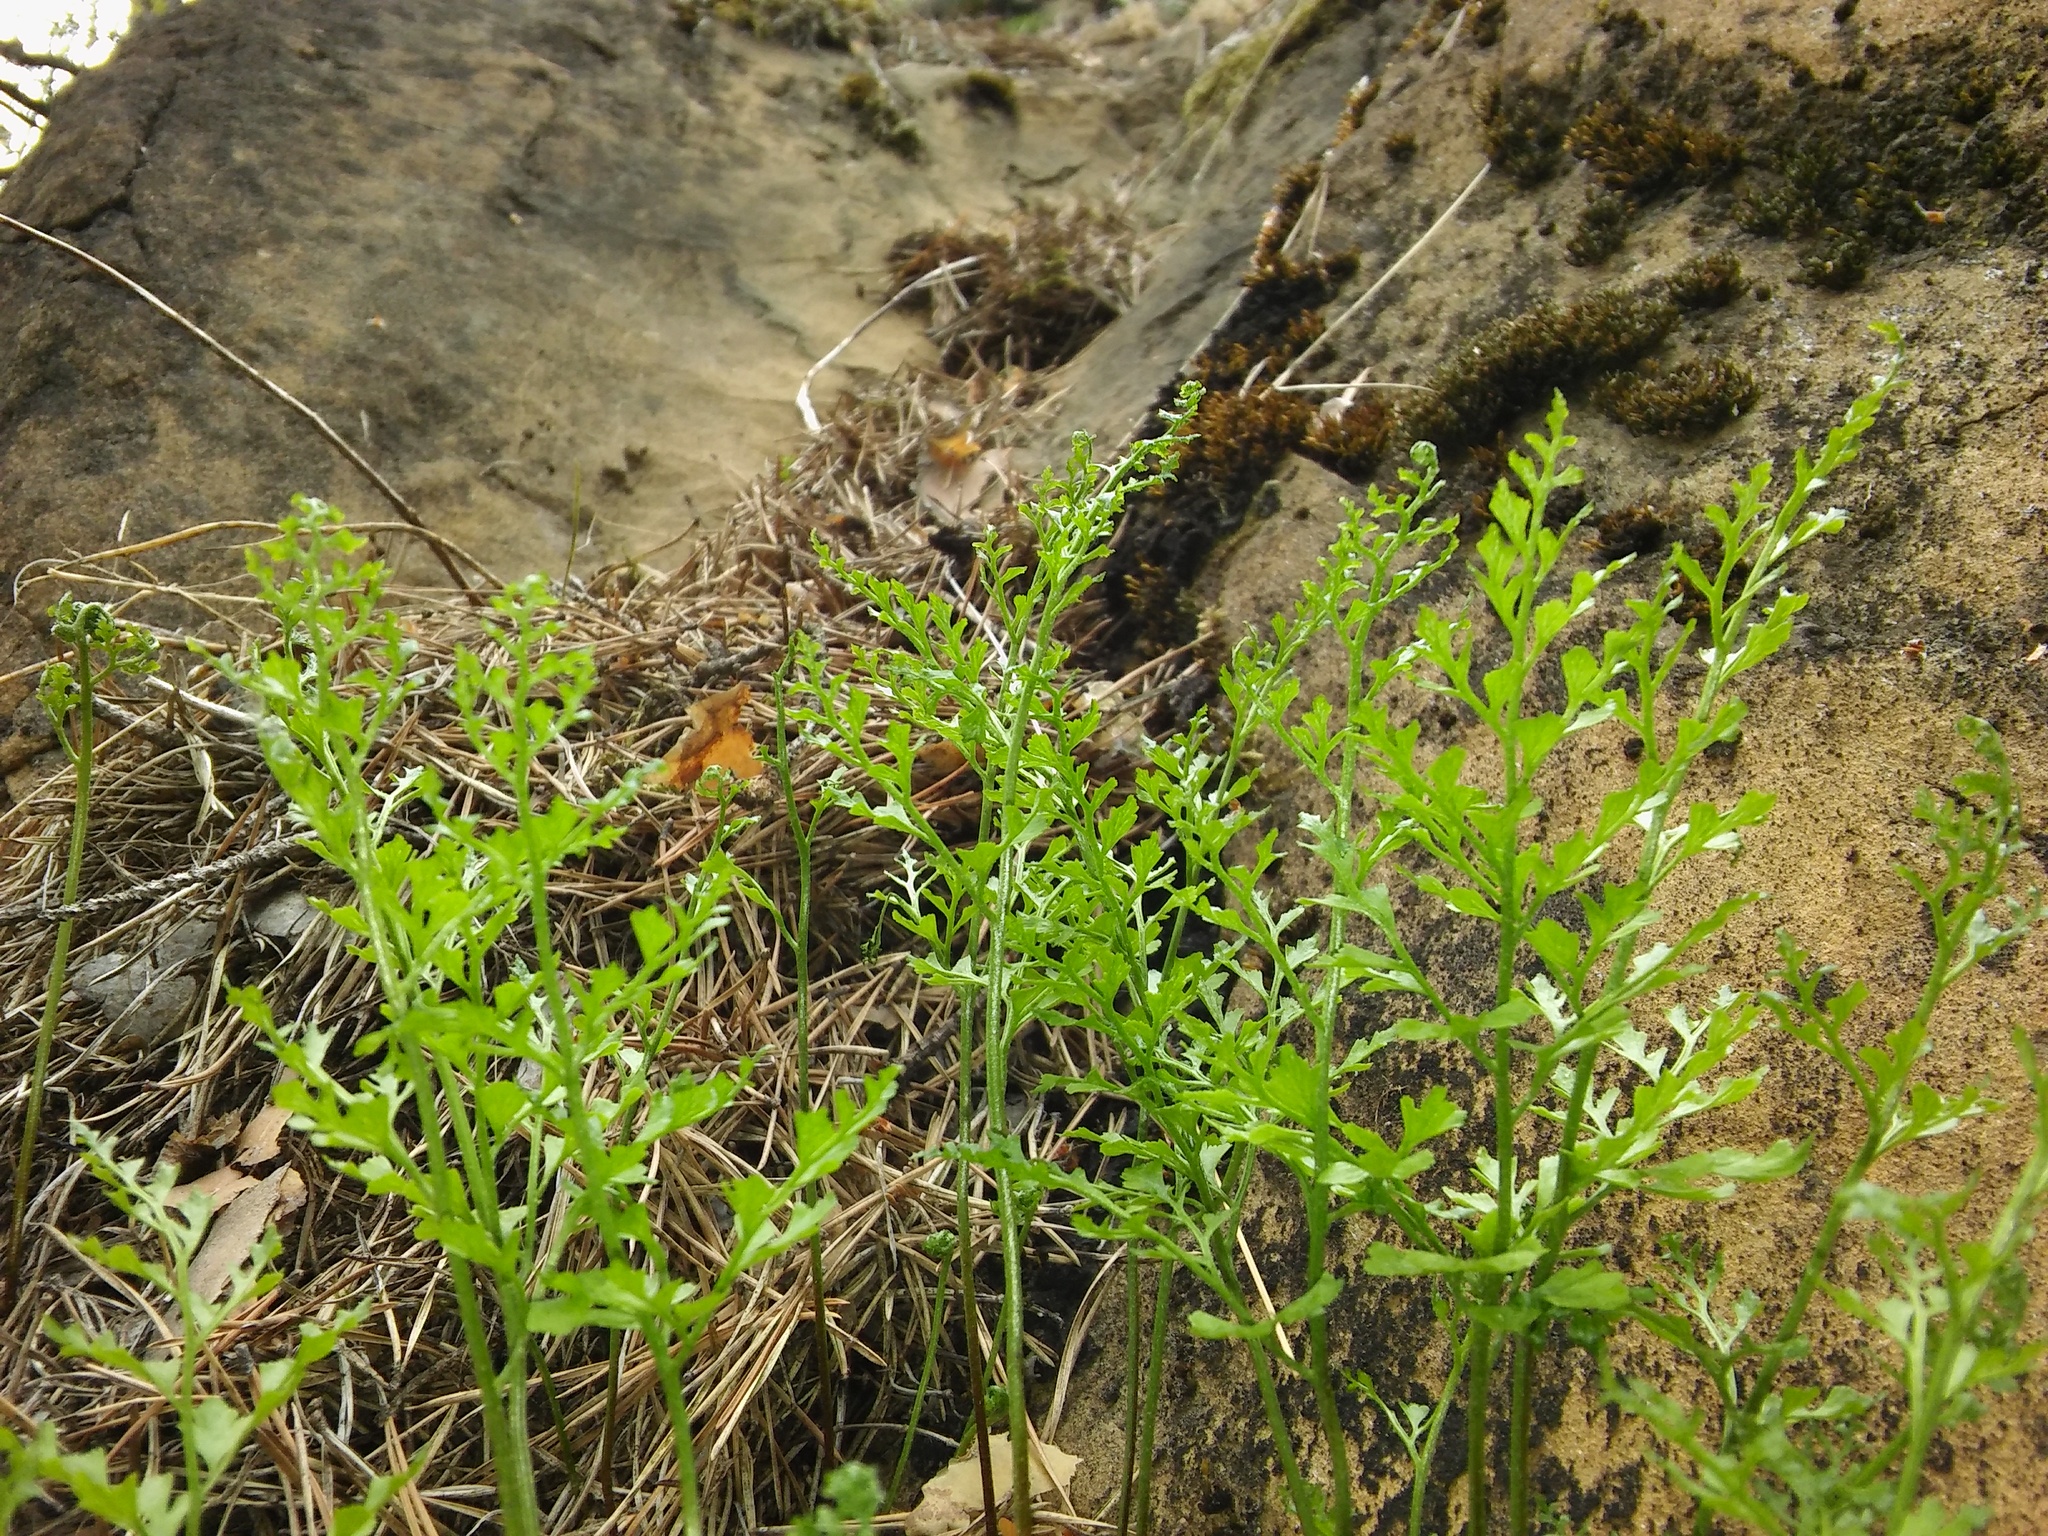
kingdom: Plantae
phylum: Tracheophyta
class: Polypodiopsida
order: Polypodiales
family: Aspleniaceae
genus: Asplenium
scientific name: Asplenium cuneifolium
